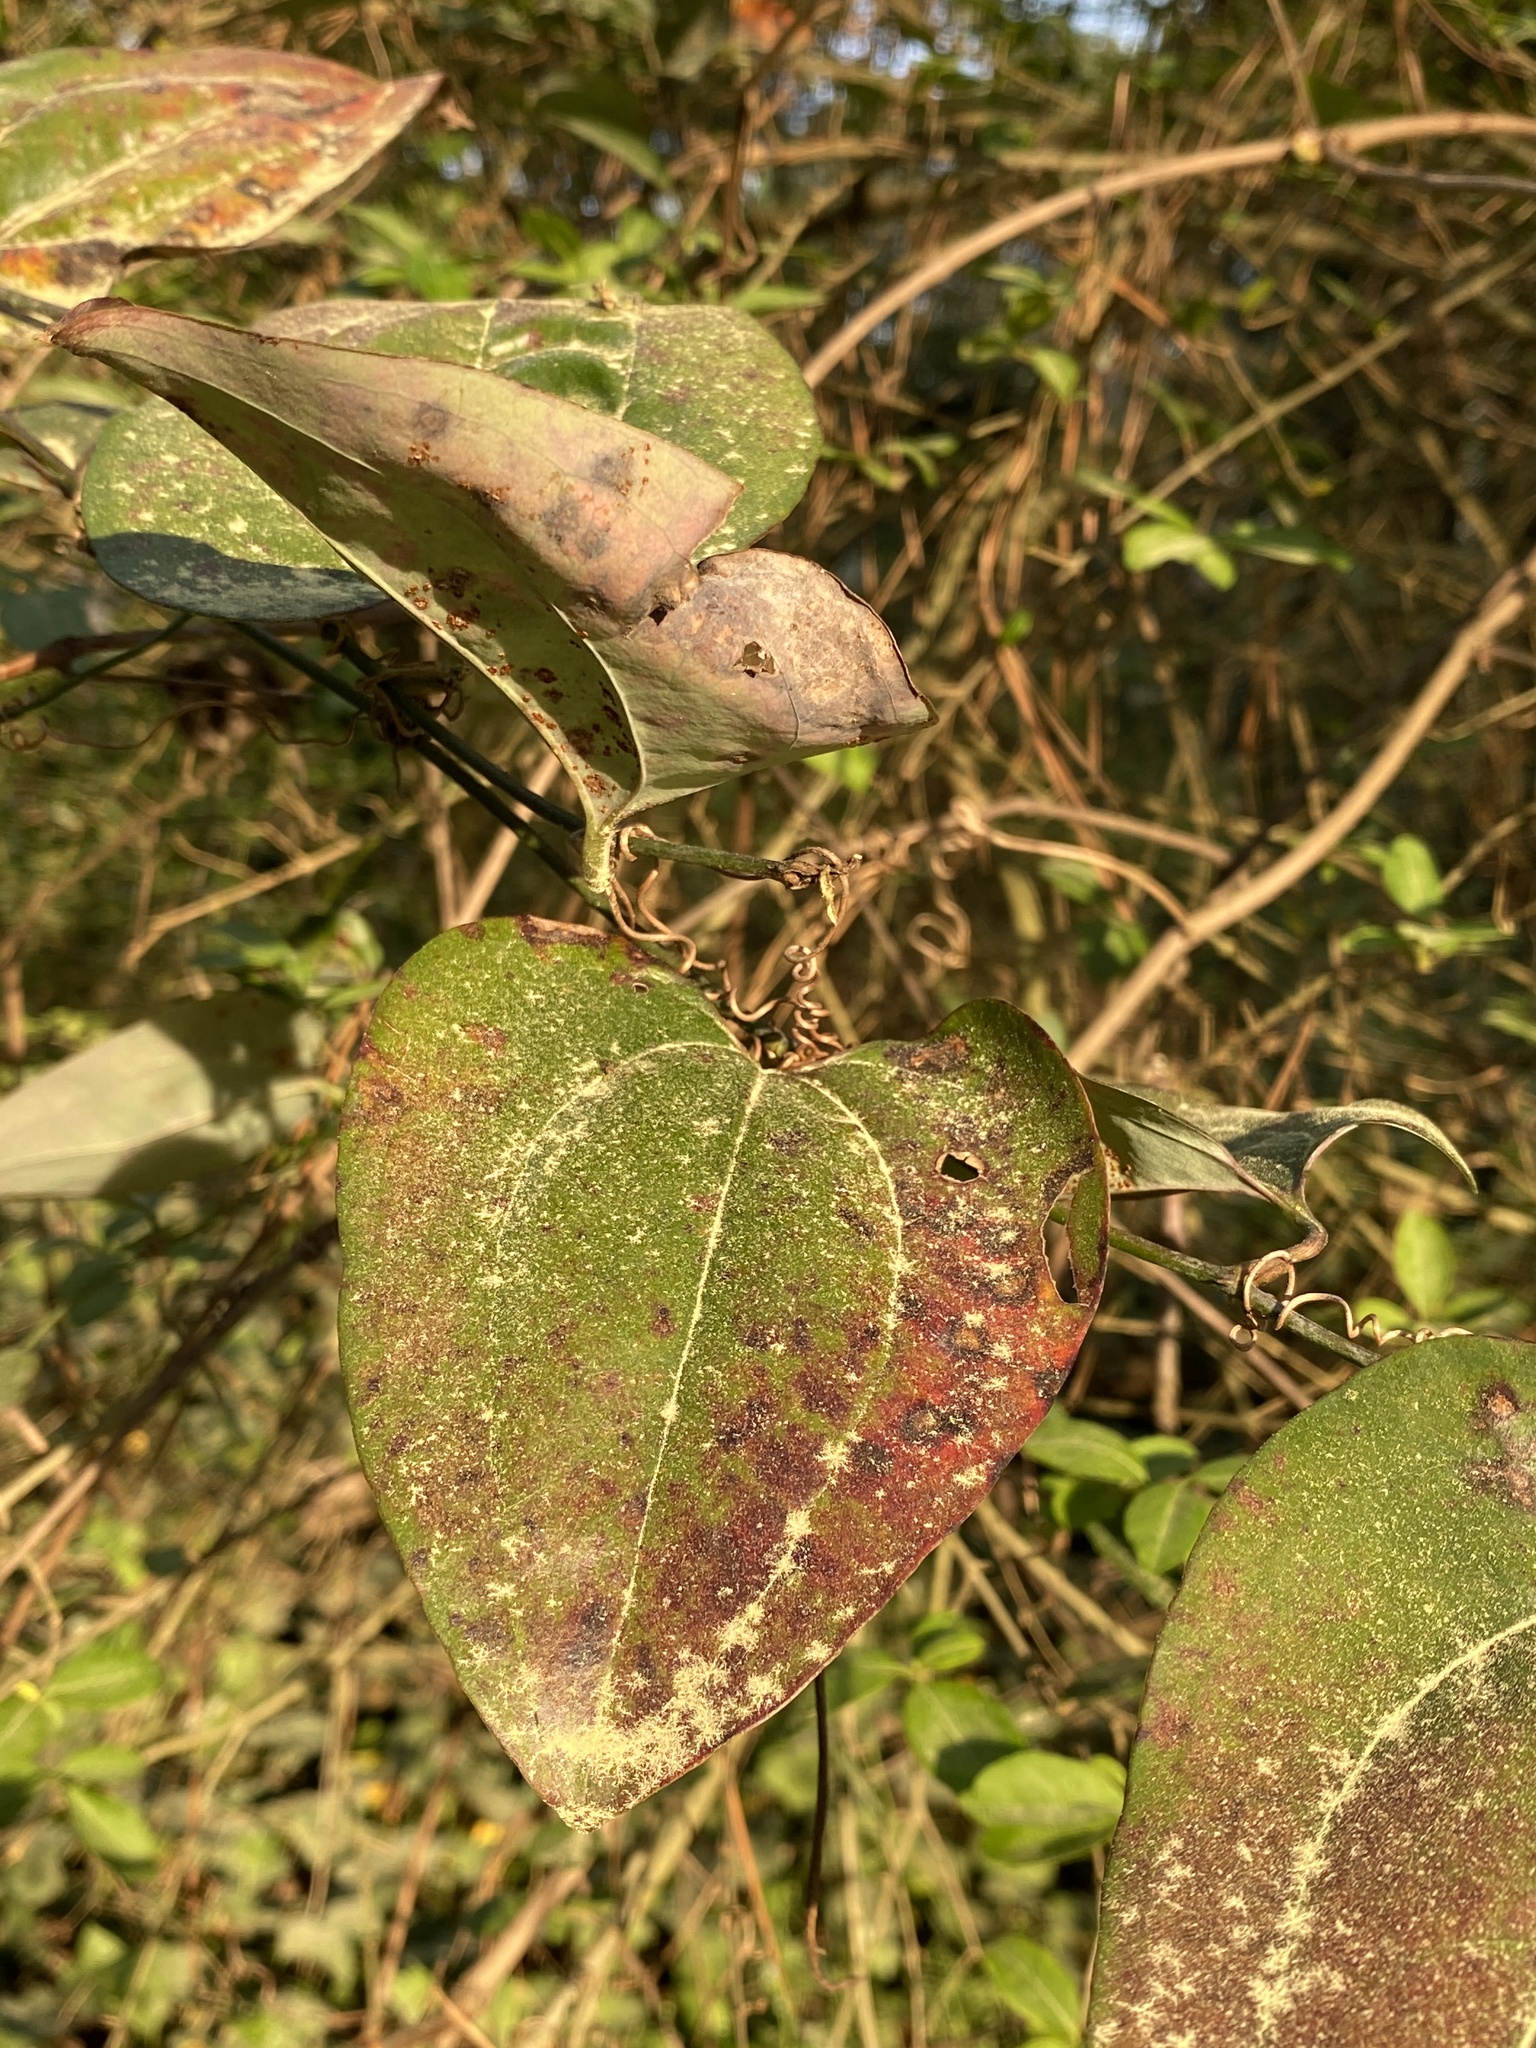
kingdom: Plantae
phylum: Tracheophyta
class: Liliopsida
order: Liliales
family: Smilacaceae
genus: Smilax
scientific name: Smilax glauca
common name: Cat greenbrier
